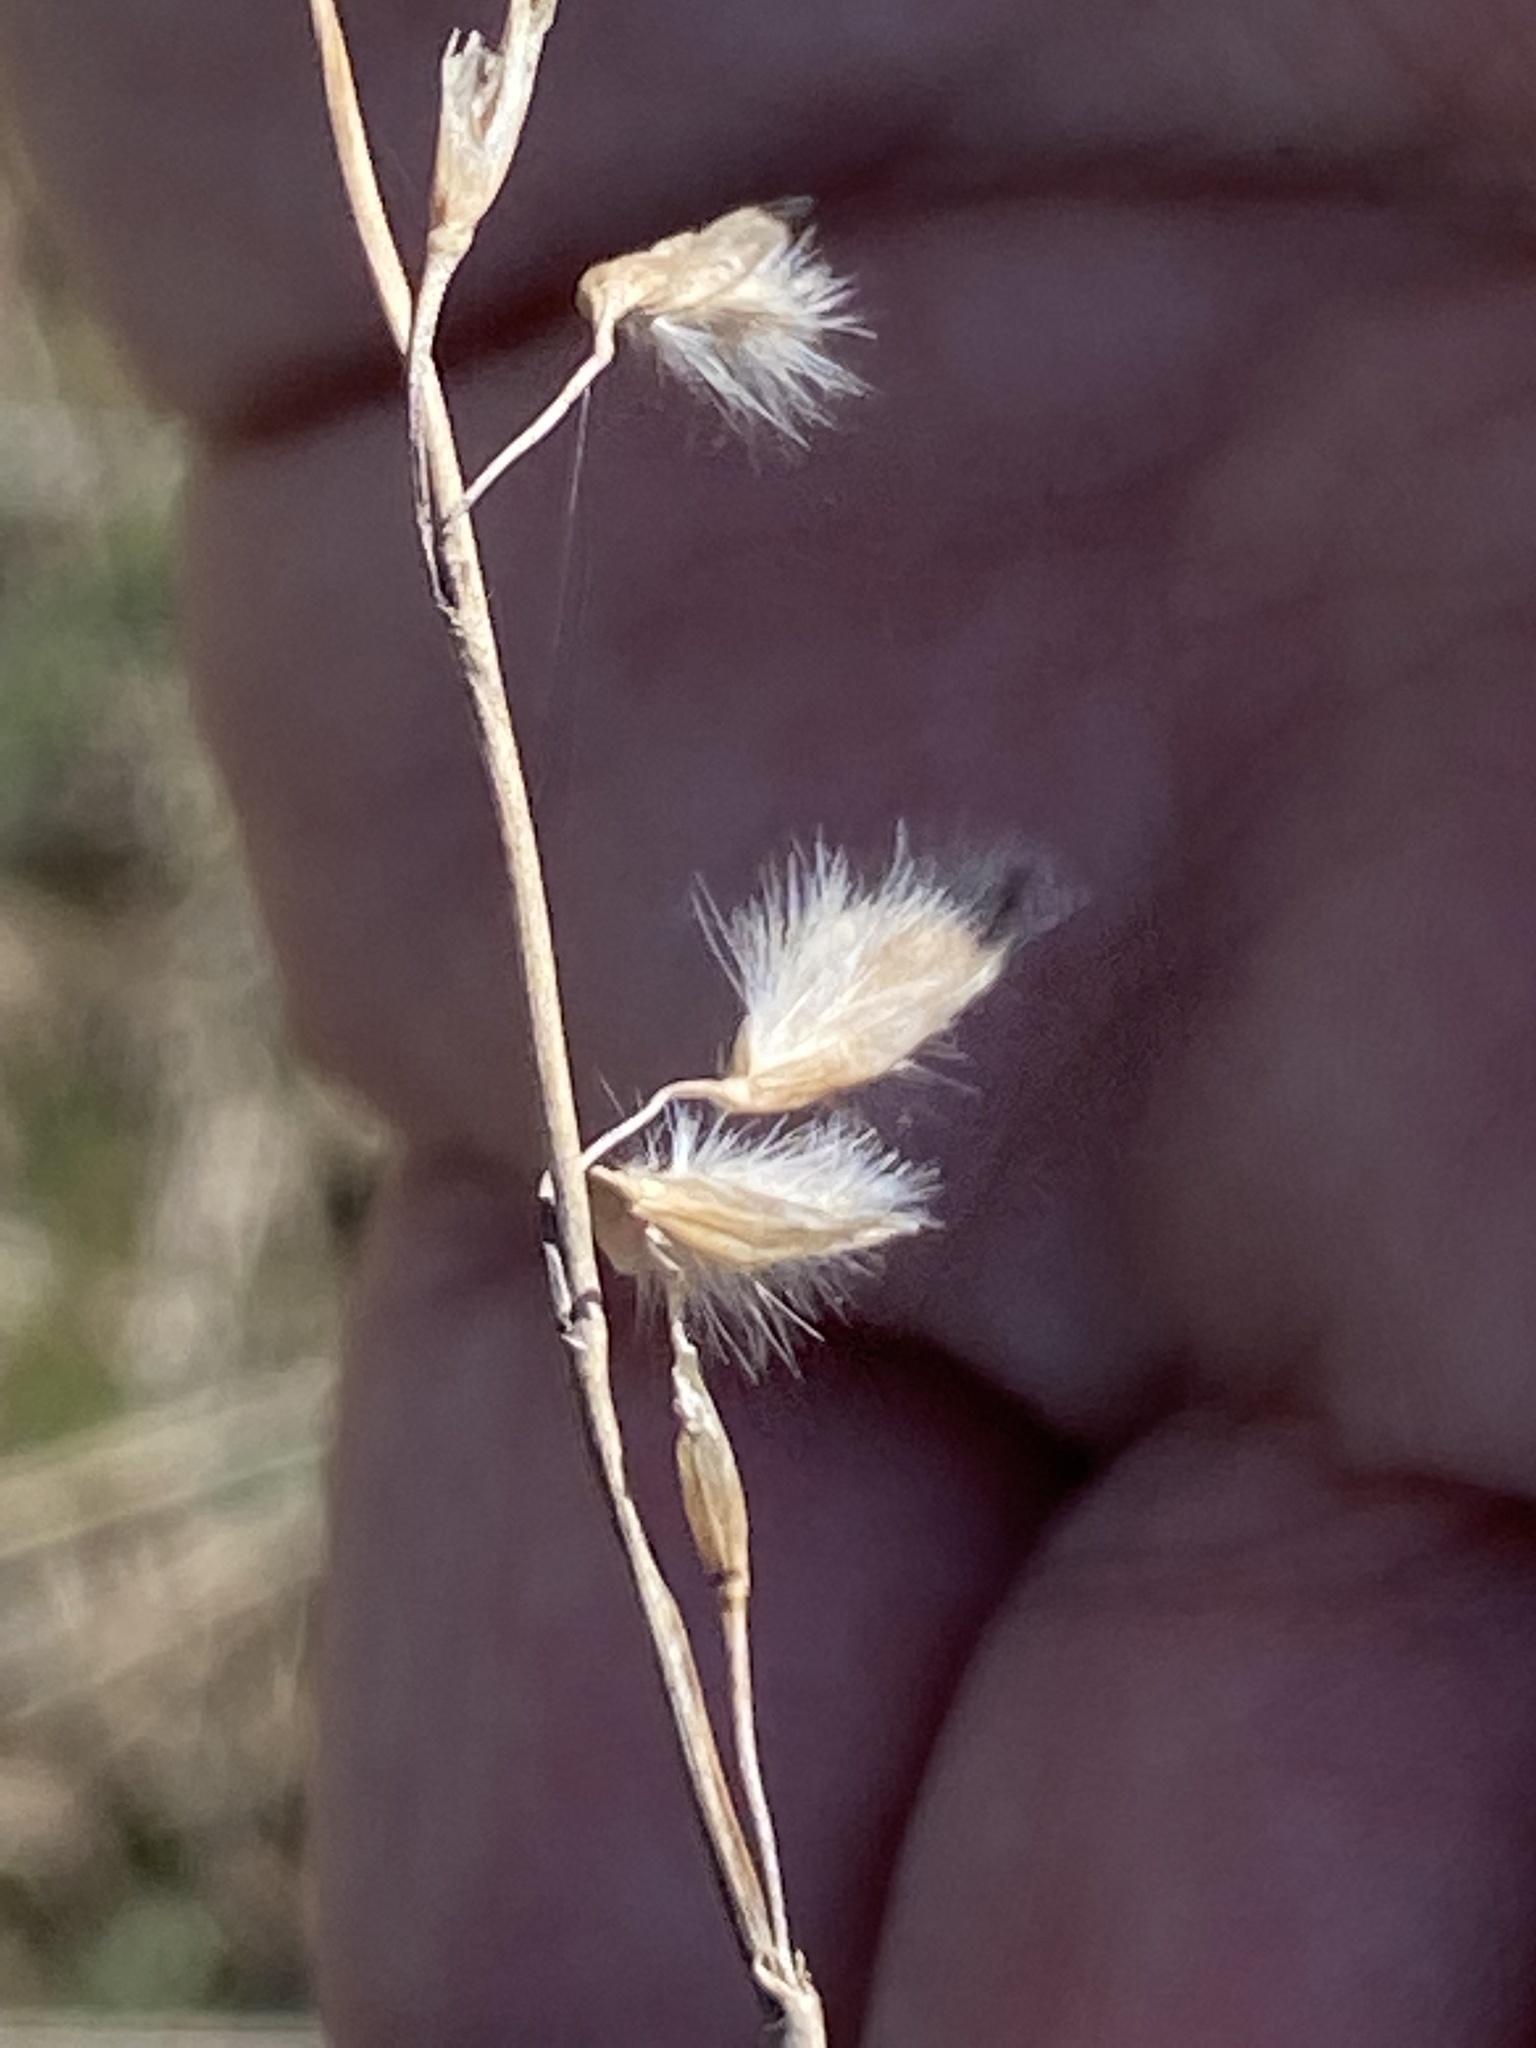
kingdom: Plantae
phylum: Tracheophyta
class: Liliopsida
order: Poales
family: Poaceae
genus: Ehrharta
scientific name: Ehrharta calycina
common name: Perennial veldtgrass
